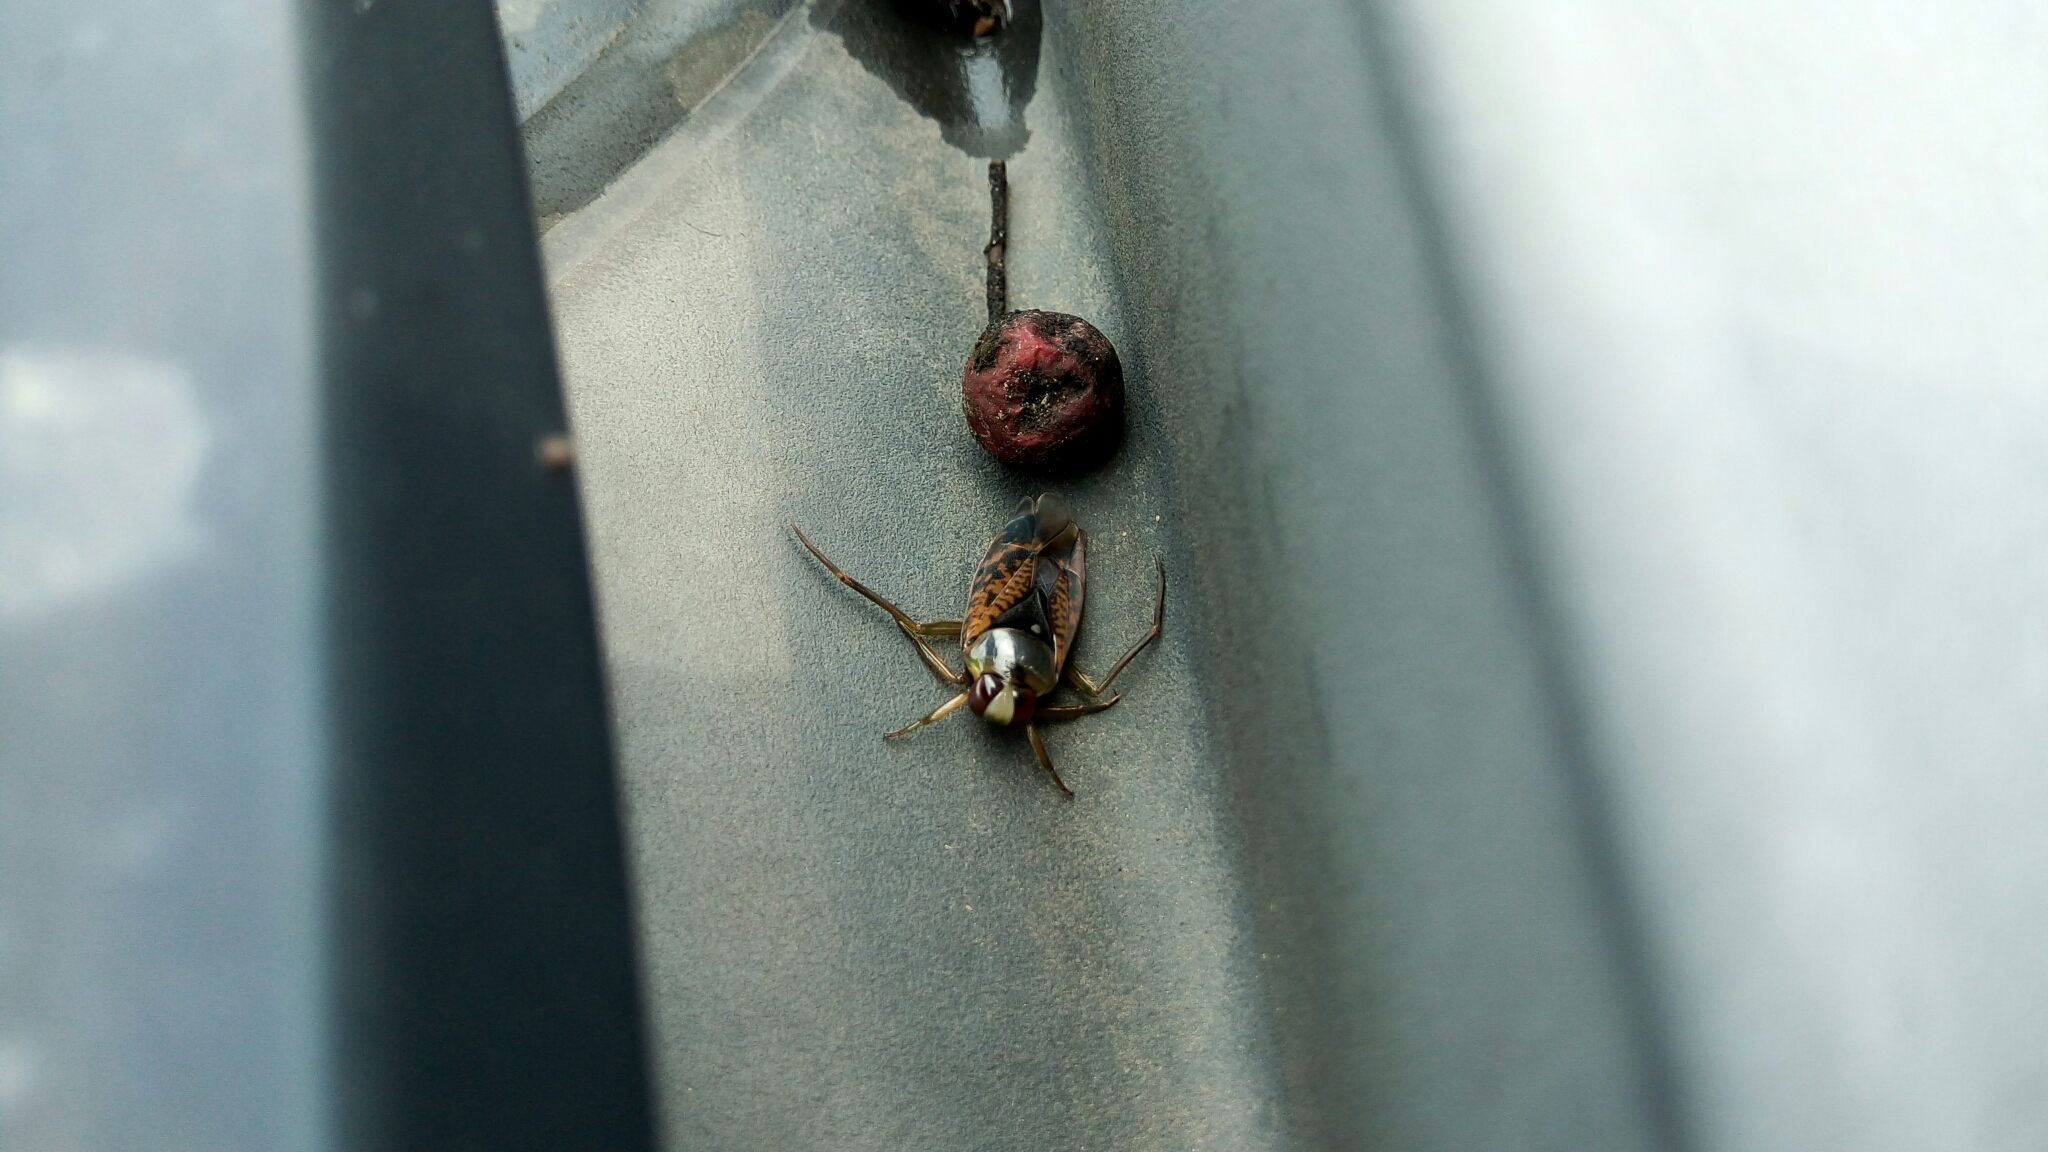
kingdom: Animalia
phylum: Arthropoda
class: Insecta
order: Hemiptera
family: Notonectidae
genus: Notonecta
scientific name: Notonecta irrorata
